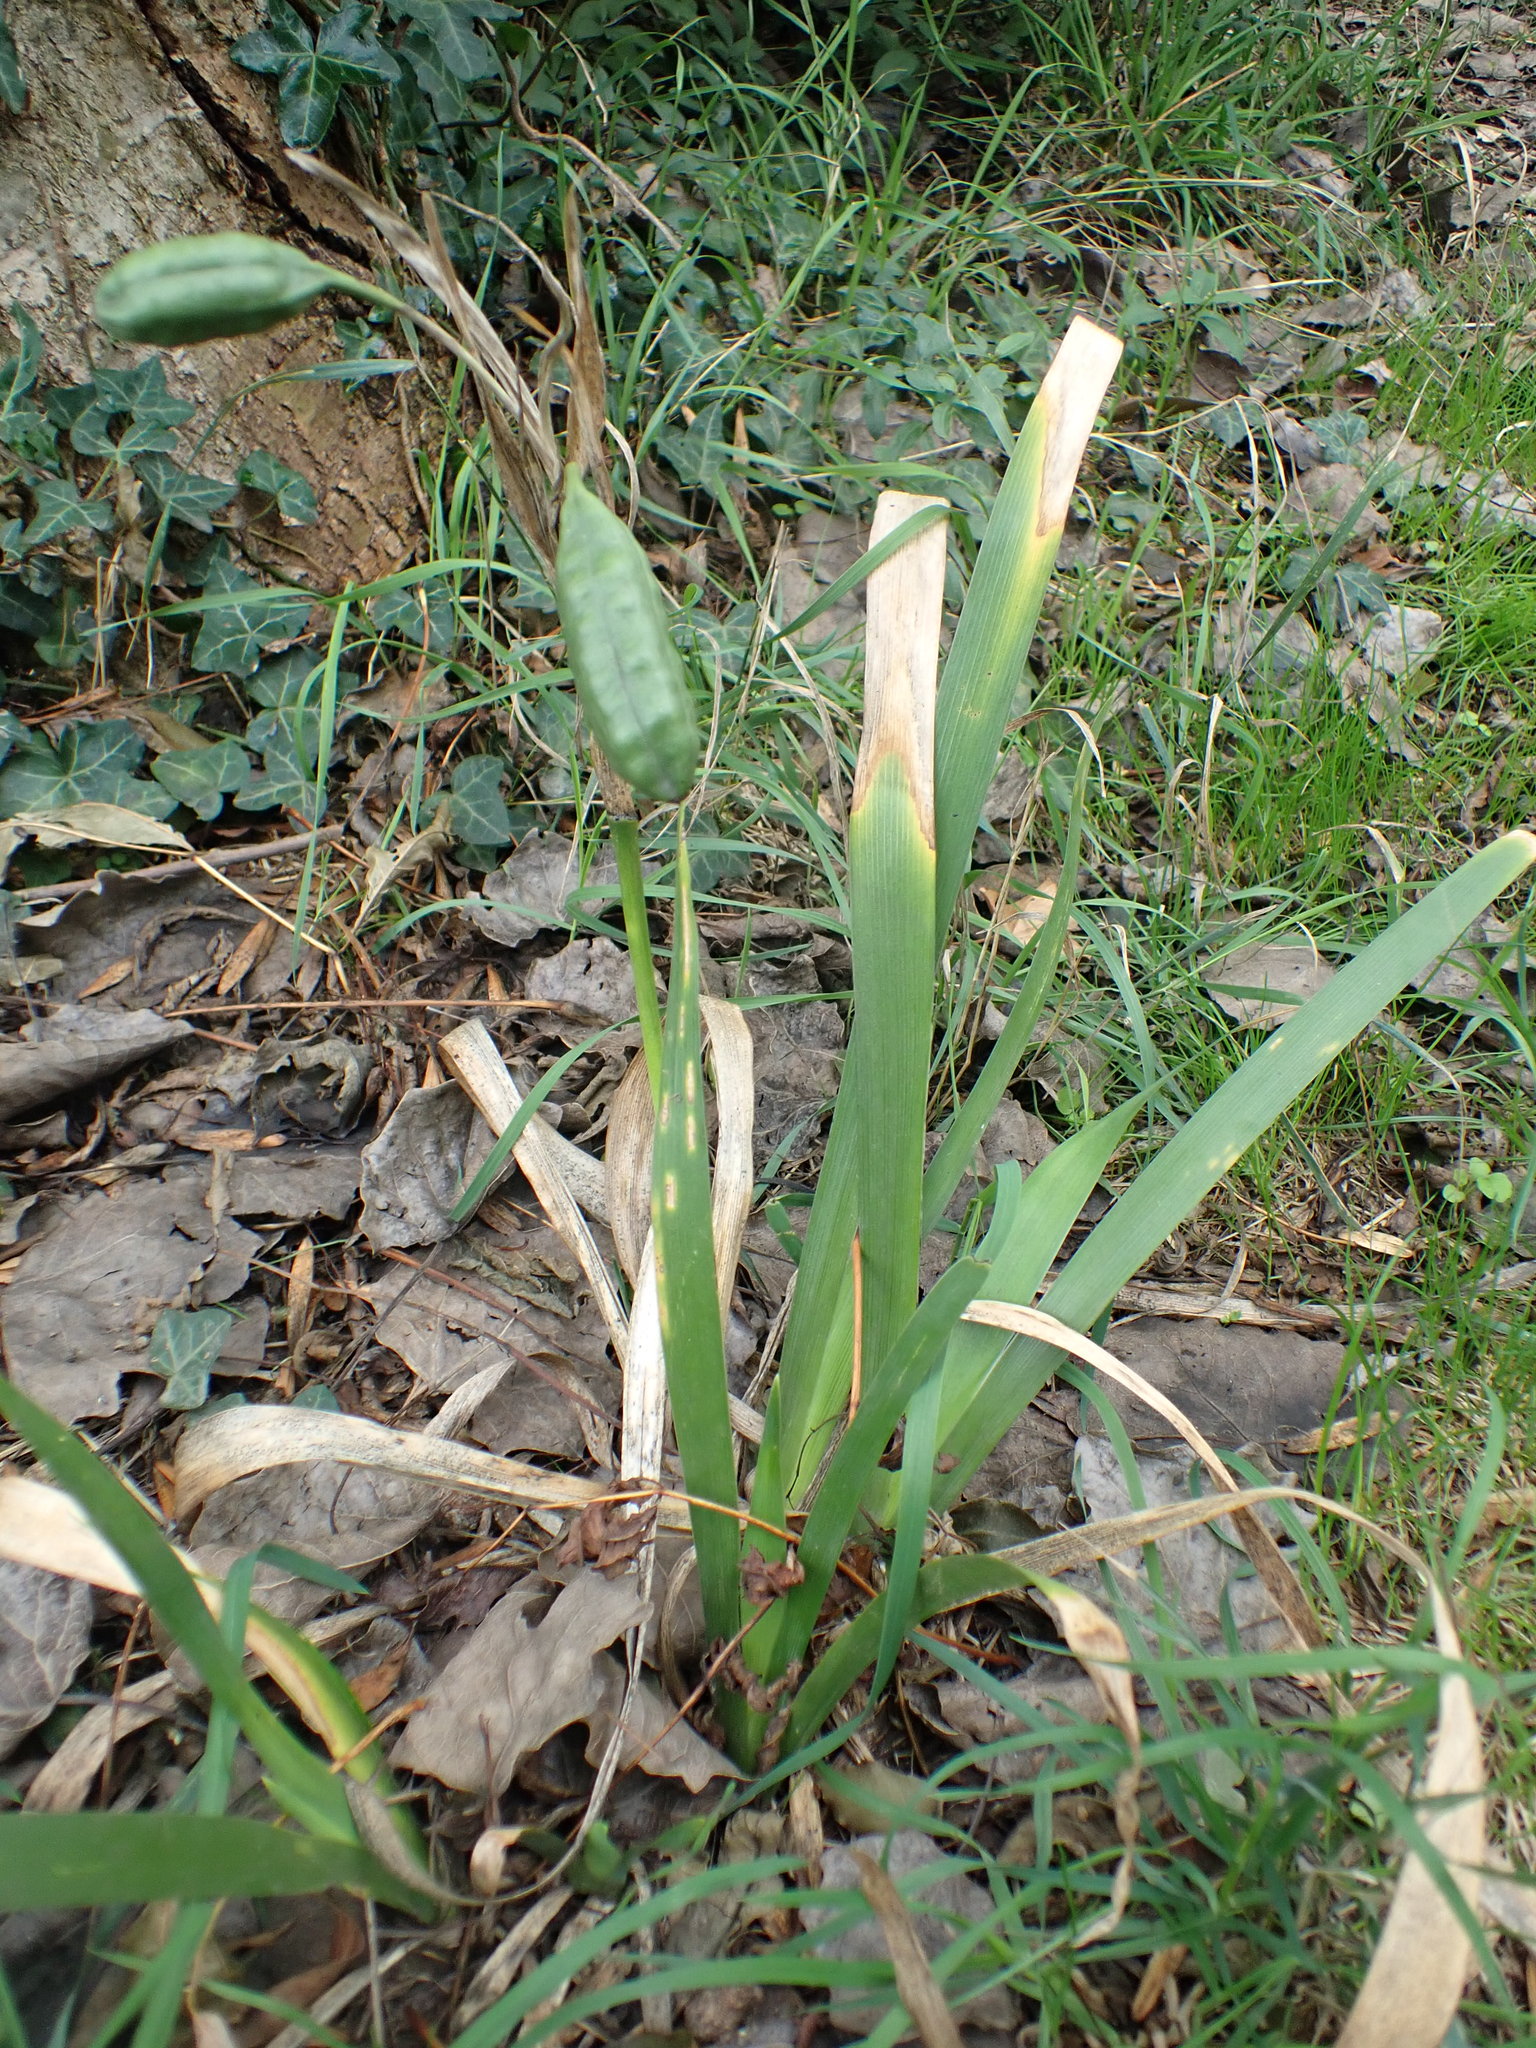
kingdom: Plantae
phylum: Tracheophyta
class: Liliopsida
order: Asparagales
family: Iridaceae
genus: Iris
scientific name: Iris foetidissima
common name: Stinking iris
